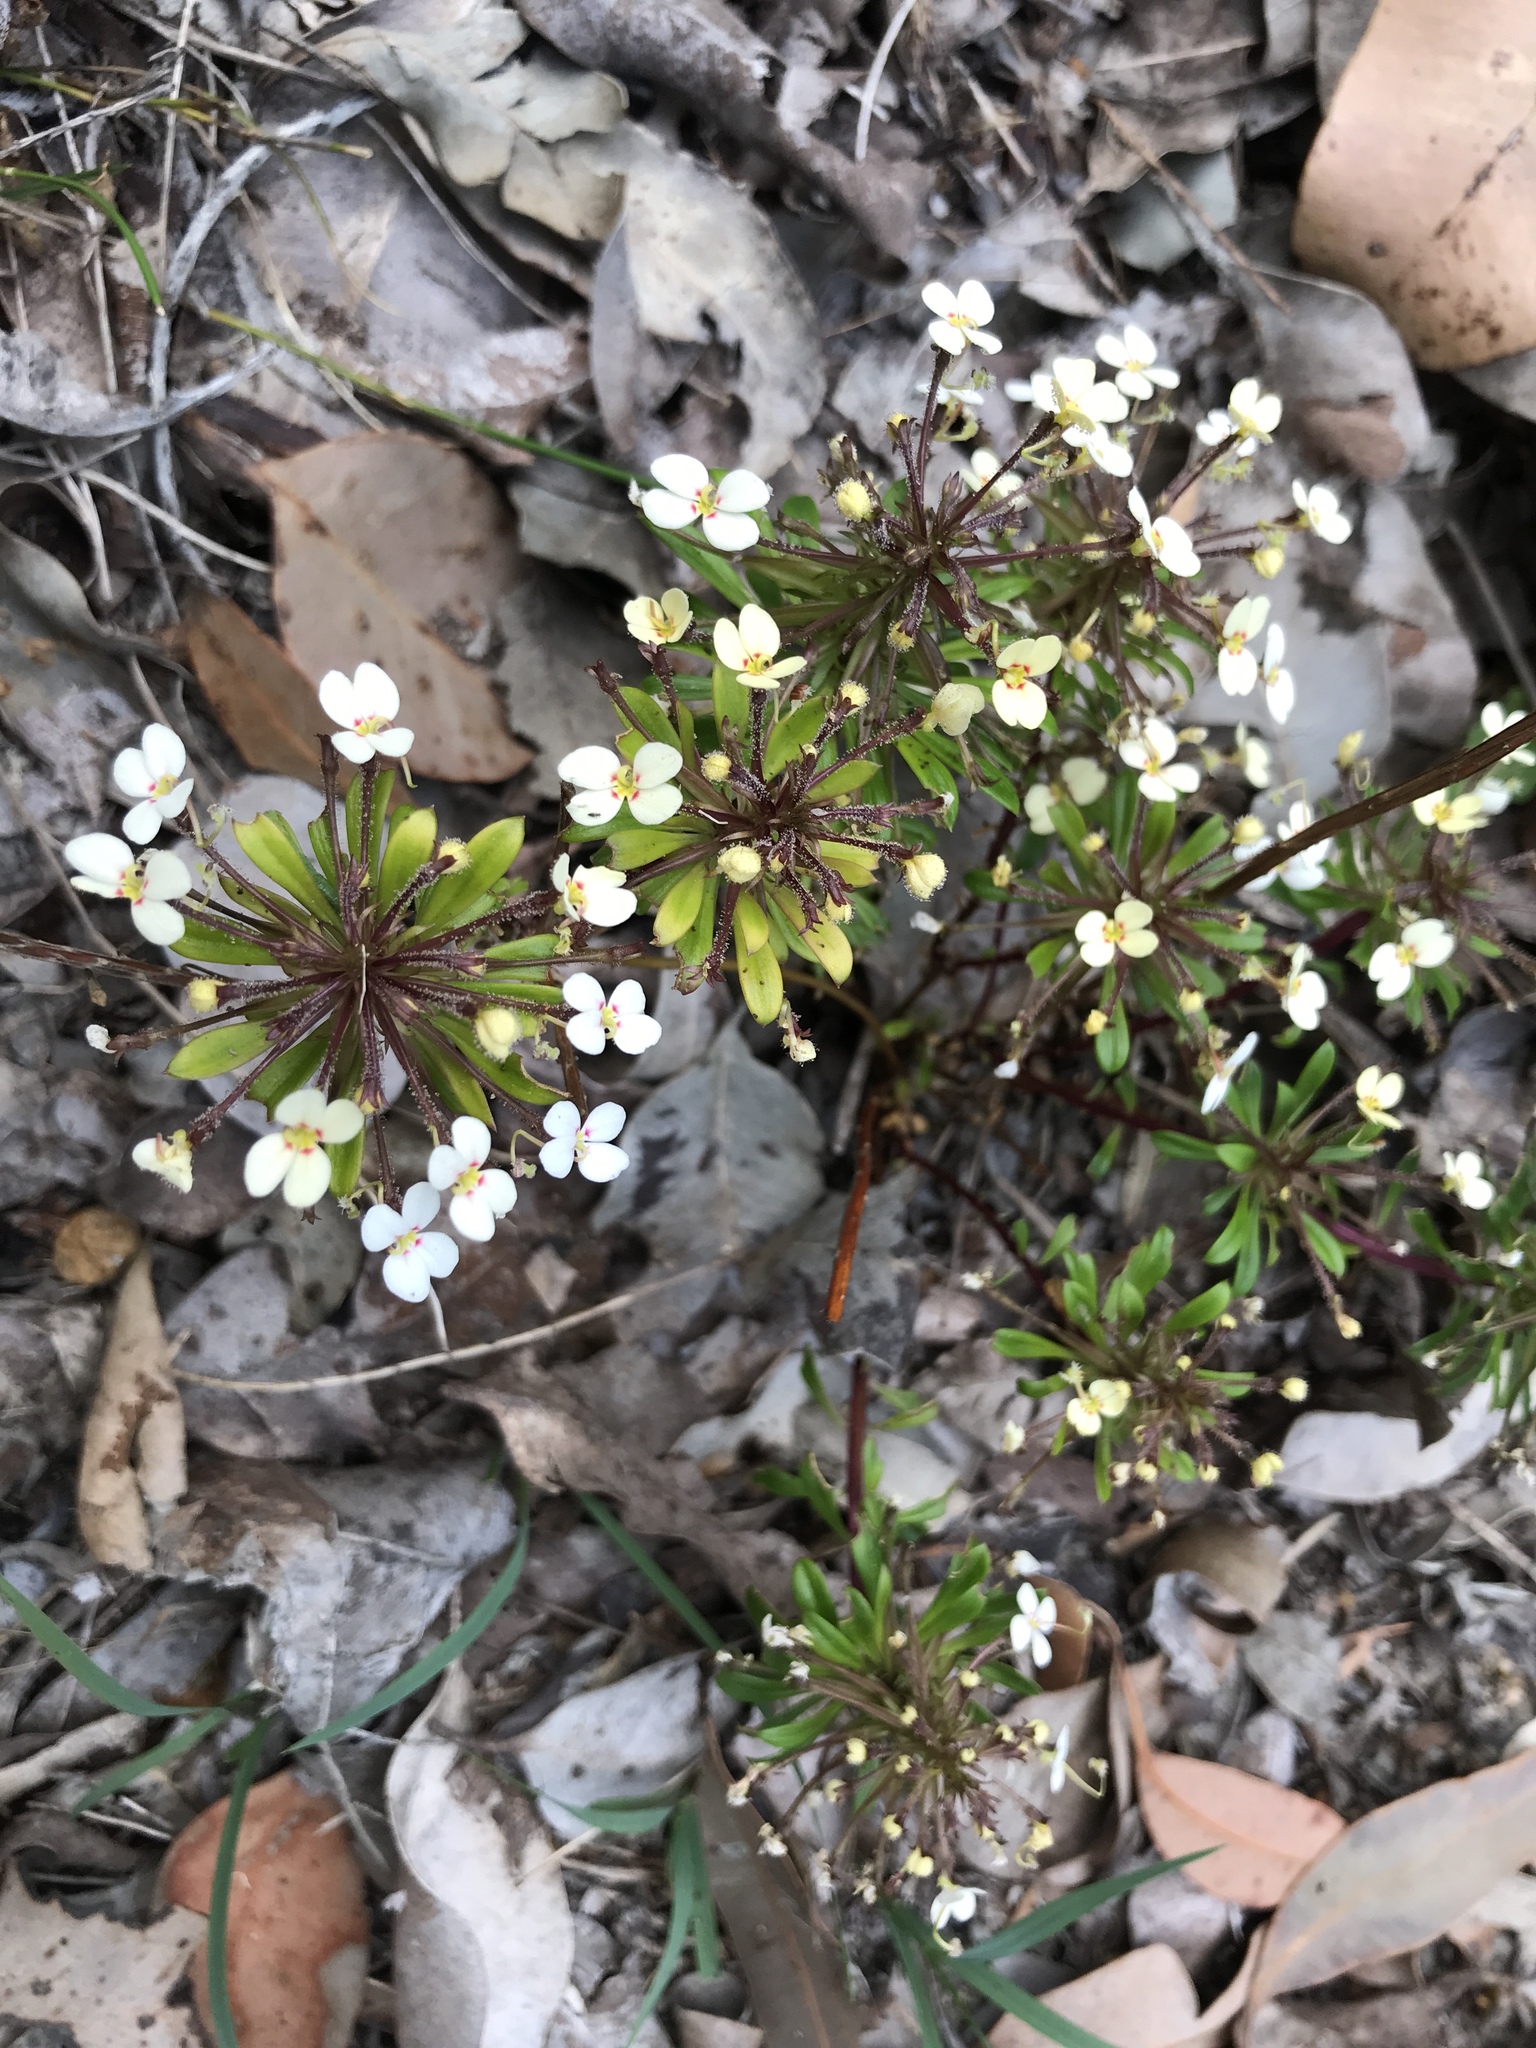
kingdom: Plantae
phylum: Tracheophyta
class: Magnoliopsida
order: Asterales
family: Stylidiaceae
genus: Stylidium
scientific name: Stylidium rhynchocarpum
